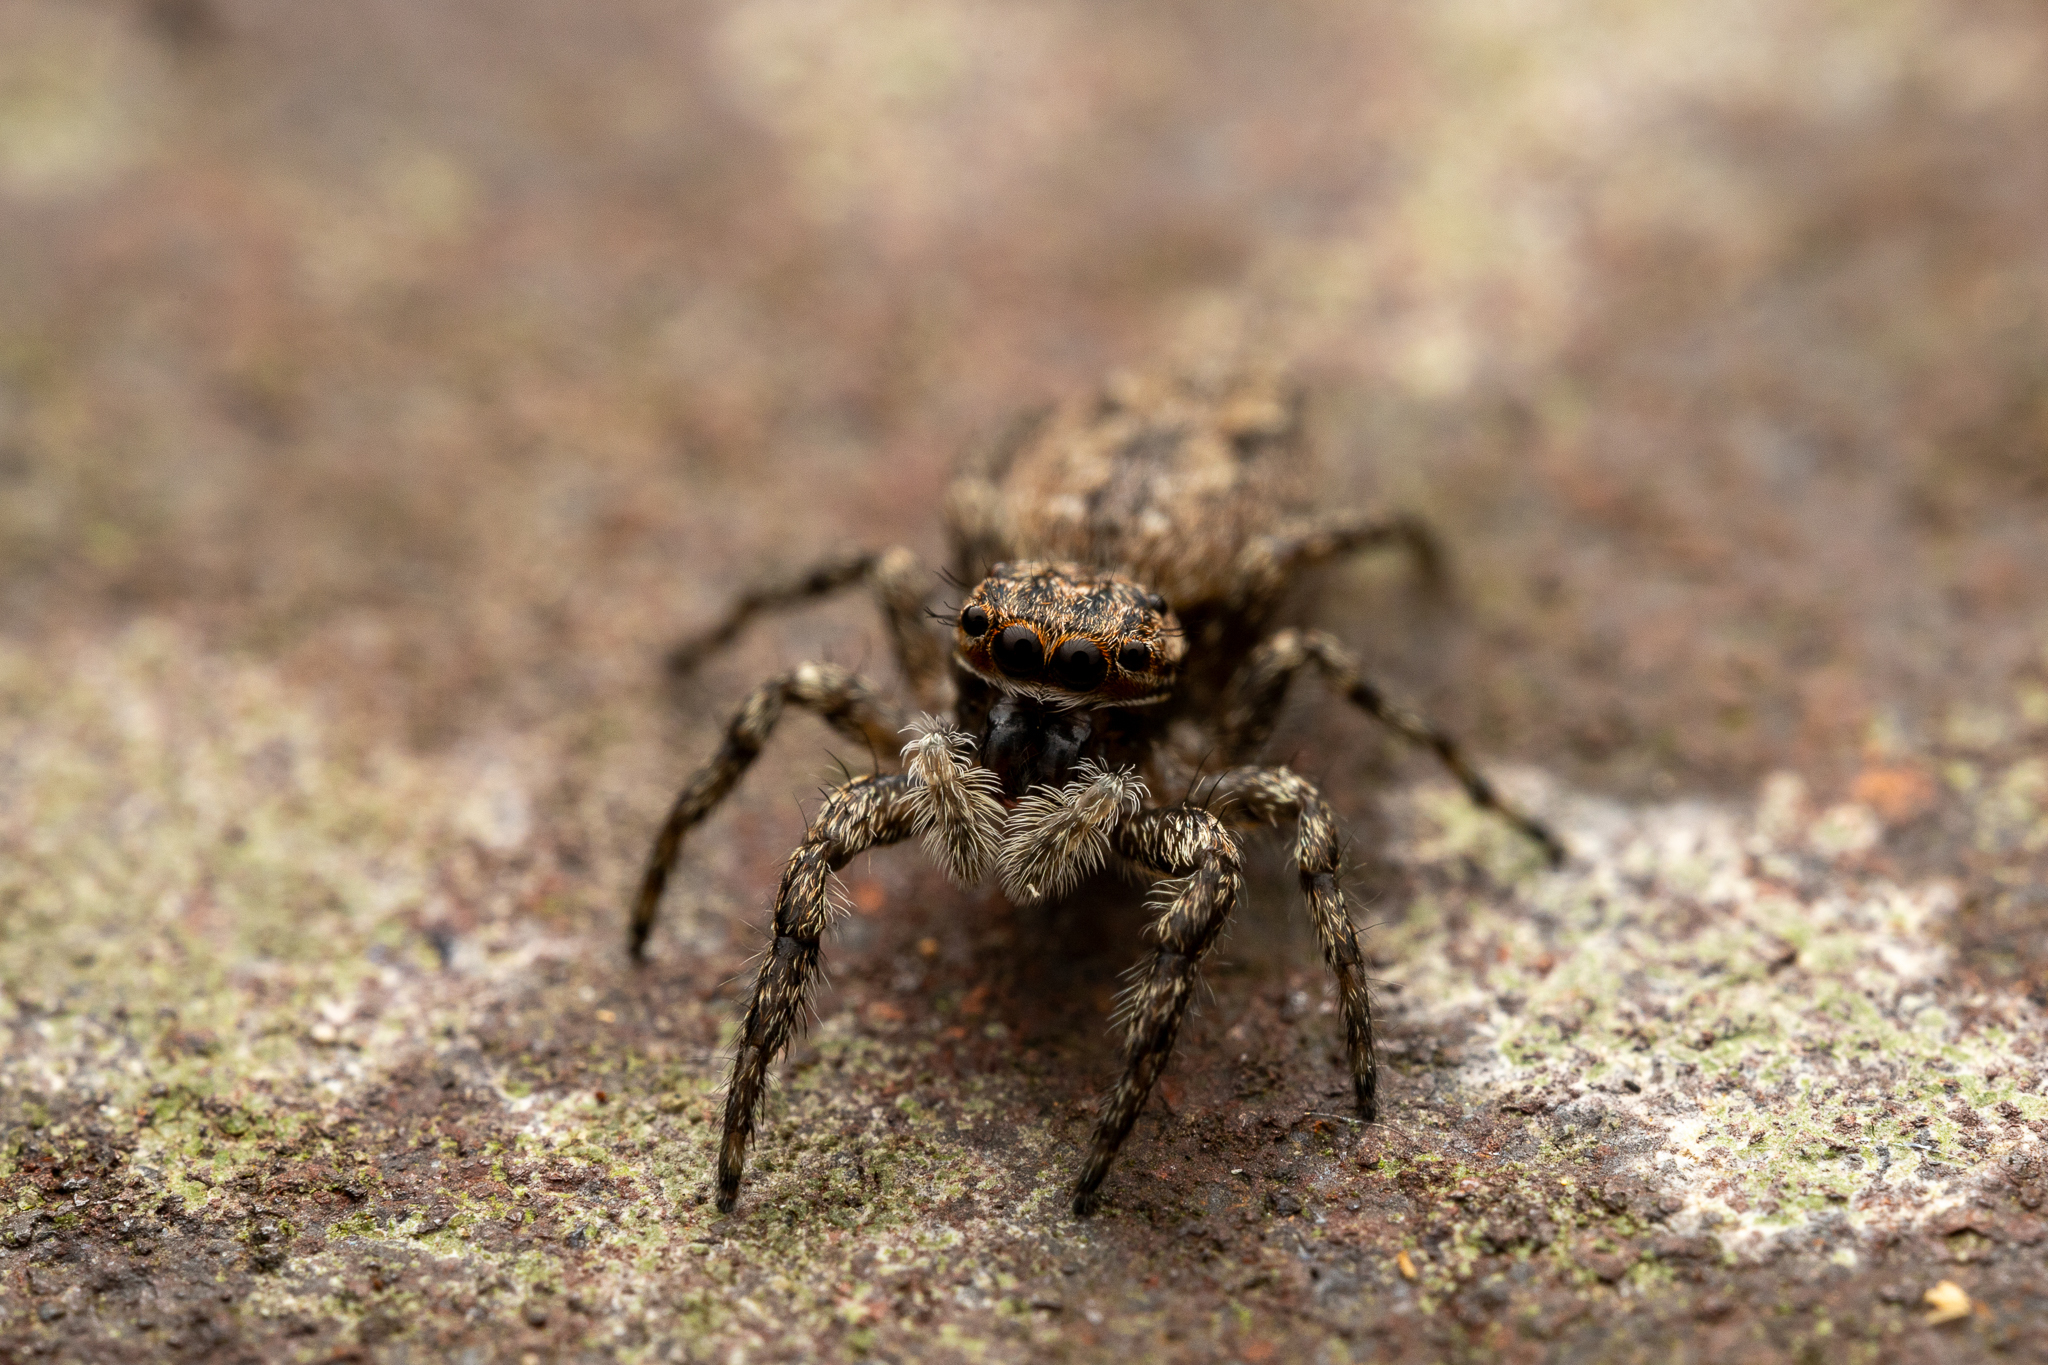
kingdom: Animalia
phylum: Arthropoda
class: Arachnida
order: Araneae
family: Salticidae
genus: Platycryptus
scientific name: Platycryptus undatus
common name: Tan jumping spider
